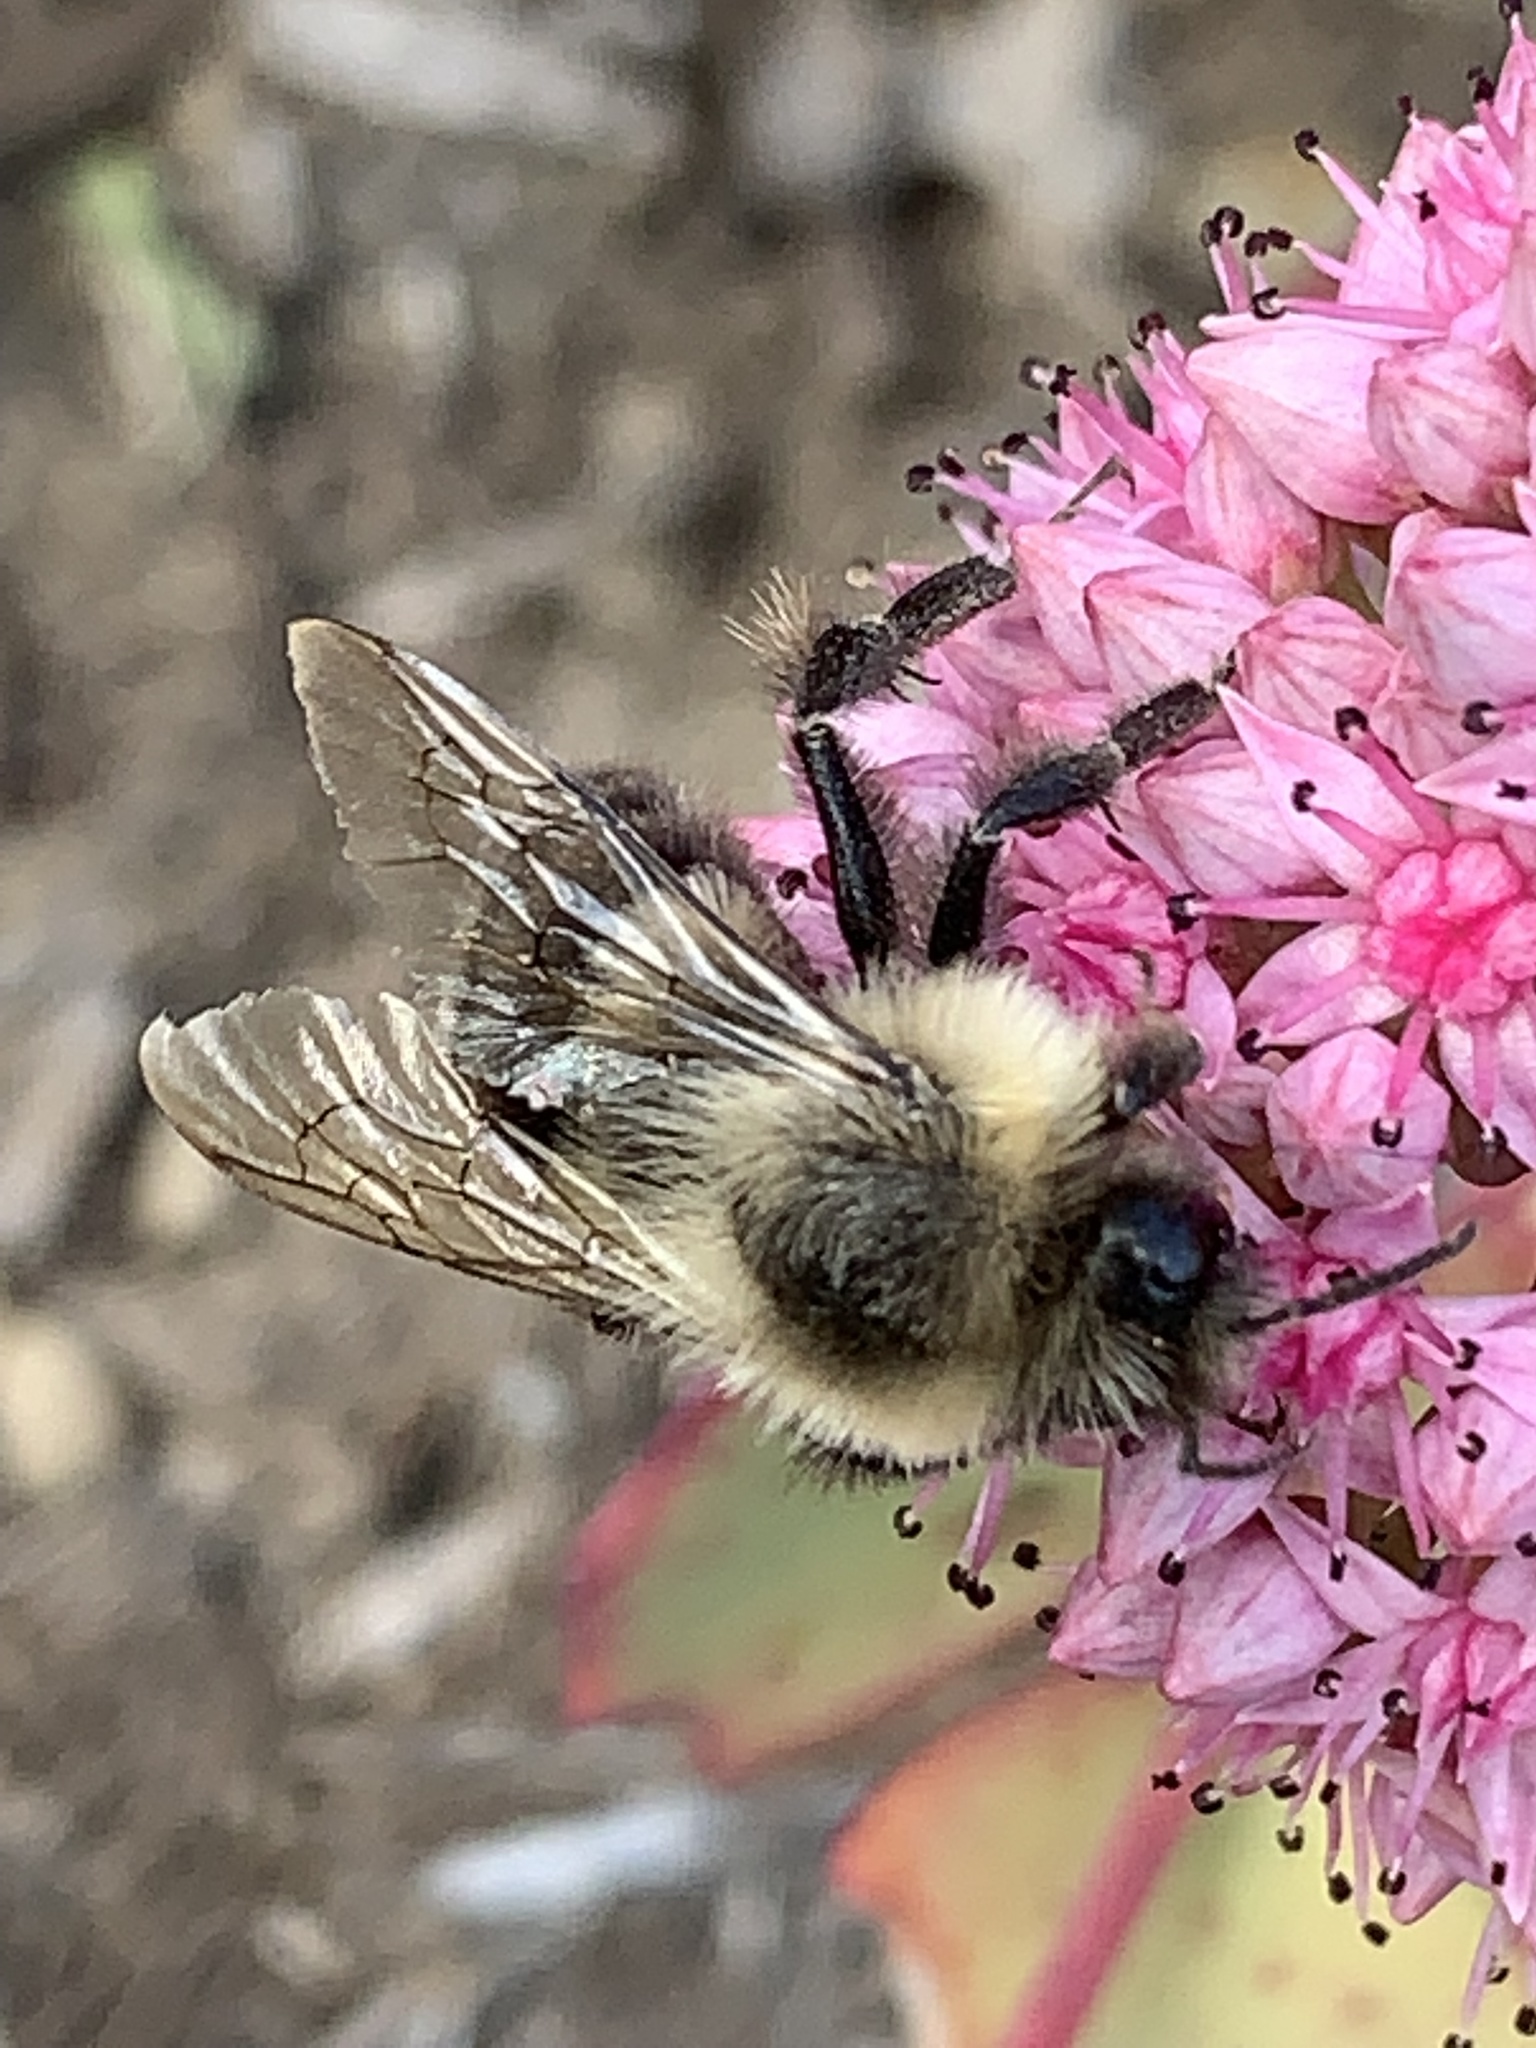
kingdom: Animalia
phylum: Arthropoda
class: Insecta
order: Hymenoptera
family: Apidae
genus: Bombus
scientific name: Bombus impatiens
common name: Common eastern bumble bee
